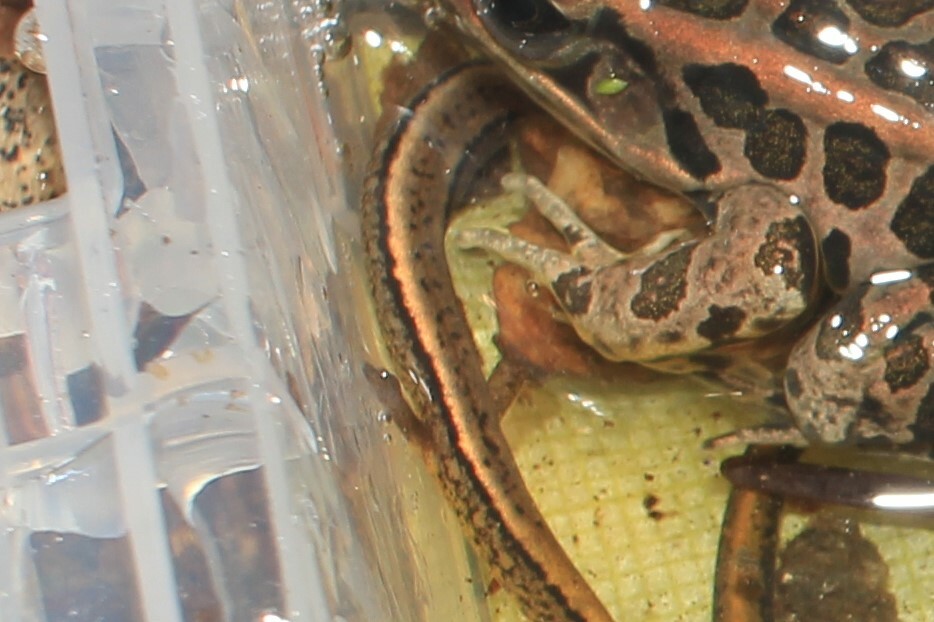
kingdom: Animalia
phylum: Chordata
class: Amphibia
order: Caudata
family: Plethodontidae
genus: Eurycea
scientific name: Eurycea bislineata
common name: Northern two-lined salamander
